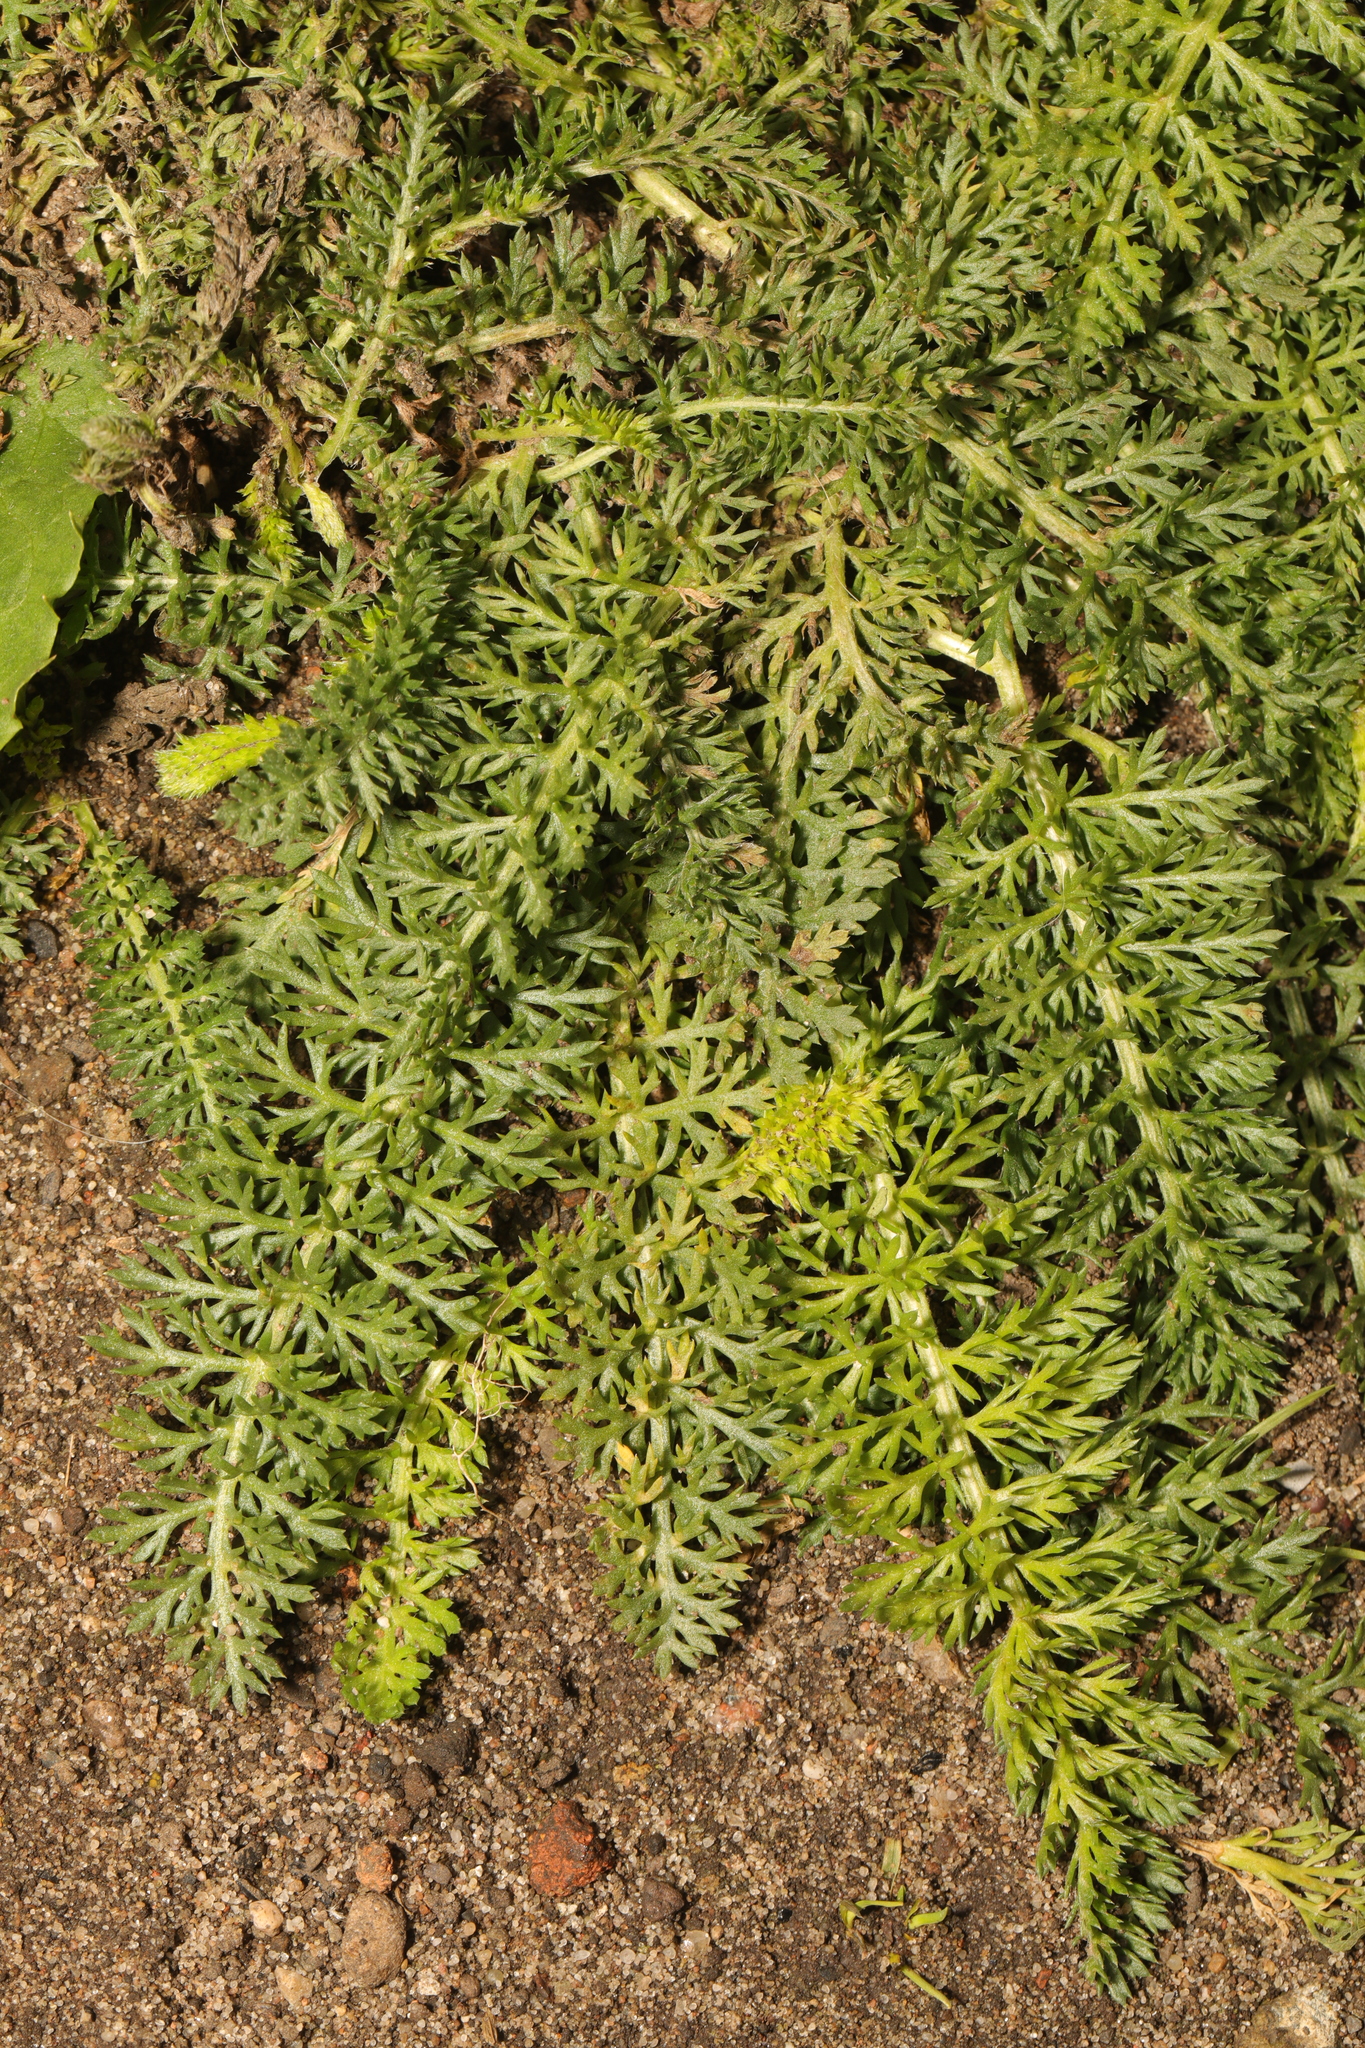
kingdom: Plantae
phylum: Tracheophyta
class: Magnoliopsida
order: Asterales
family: Asteraceae
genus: Achillea
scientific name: Achillea millefolium
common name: Yarrow
